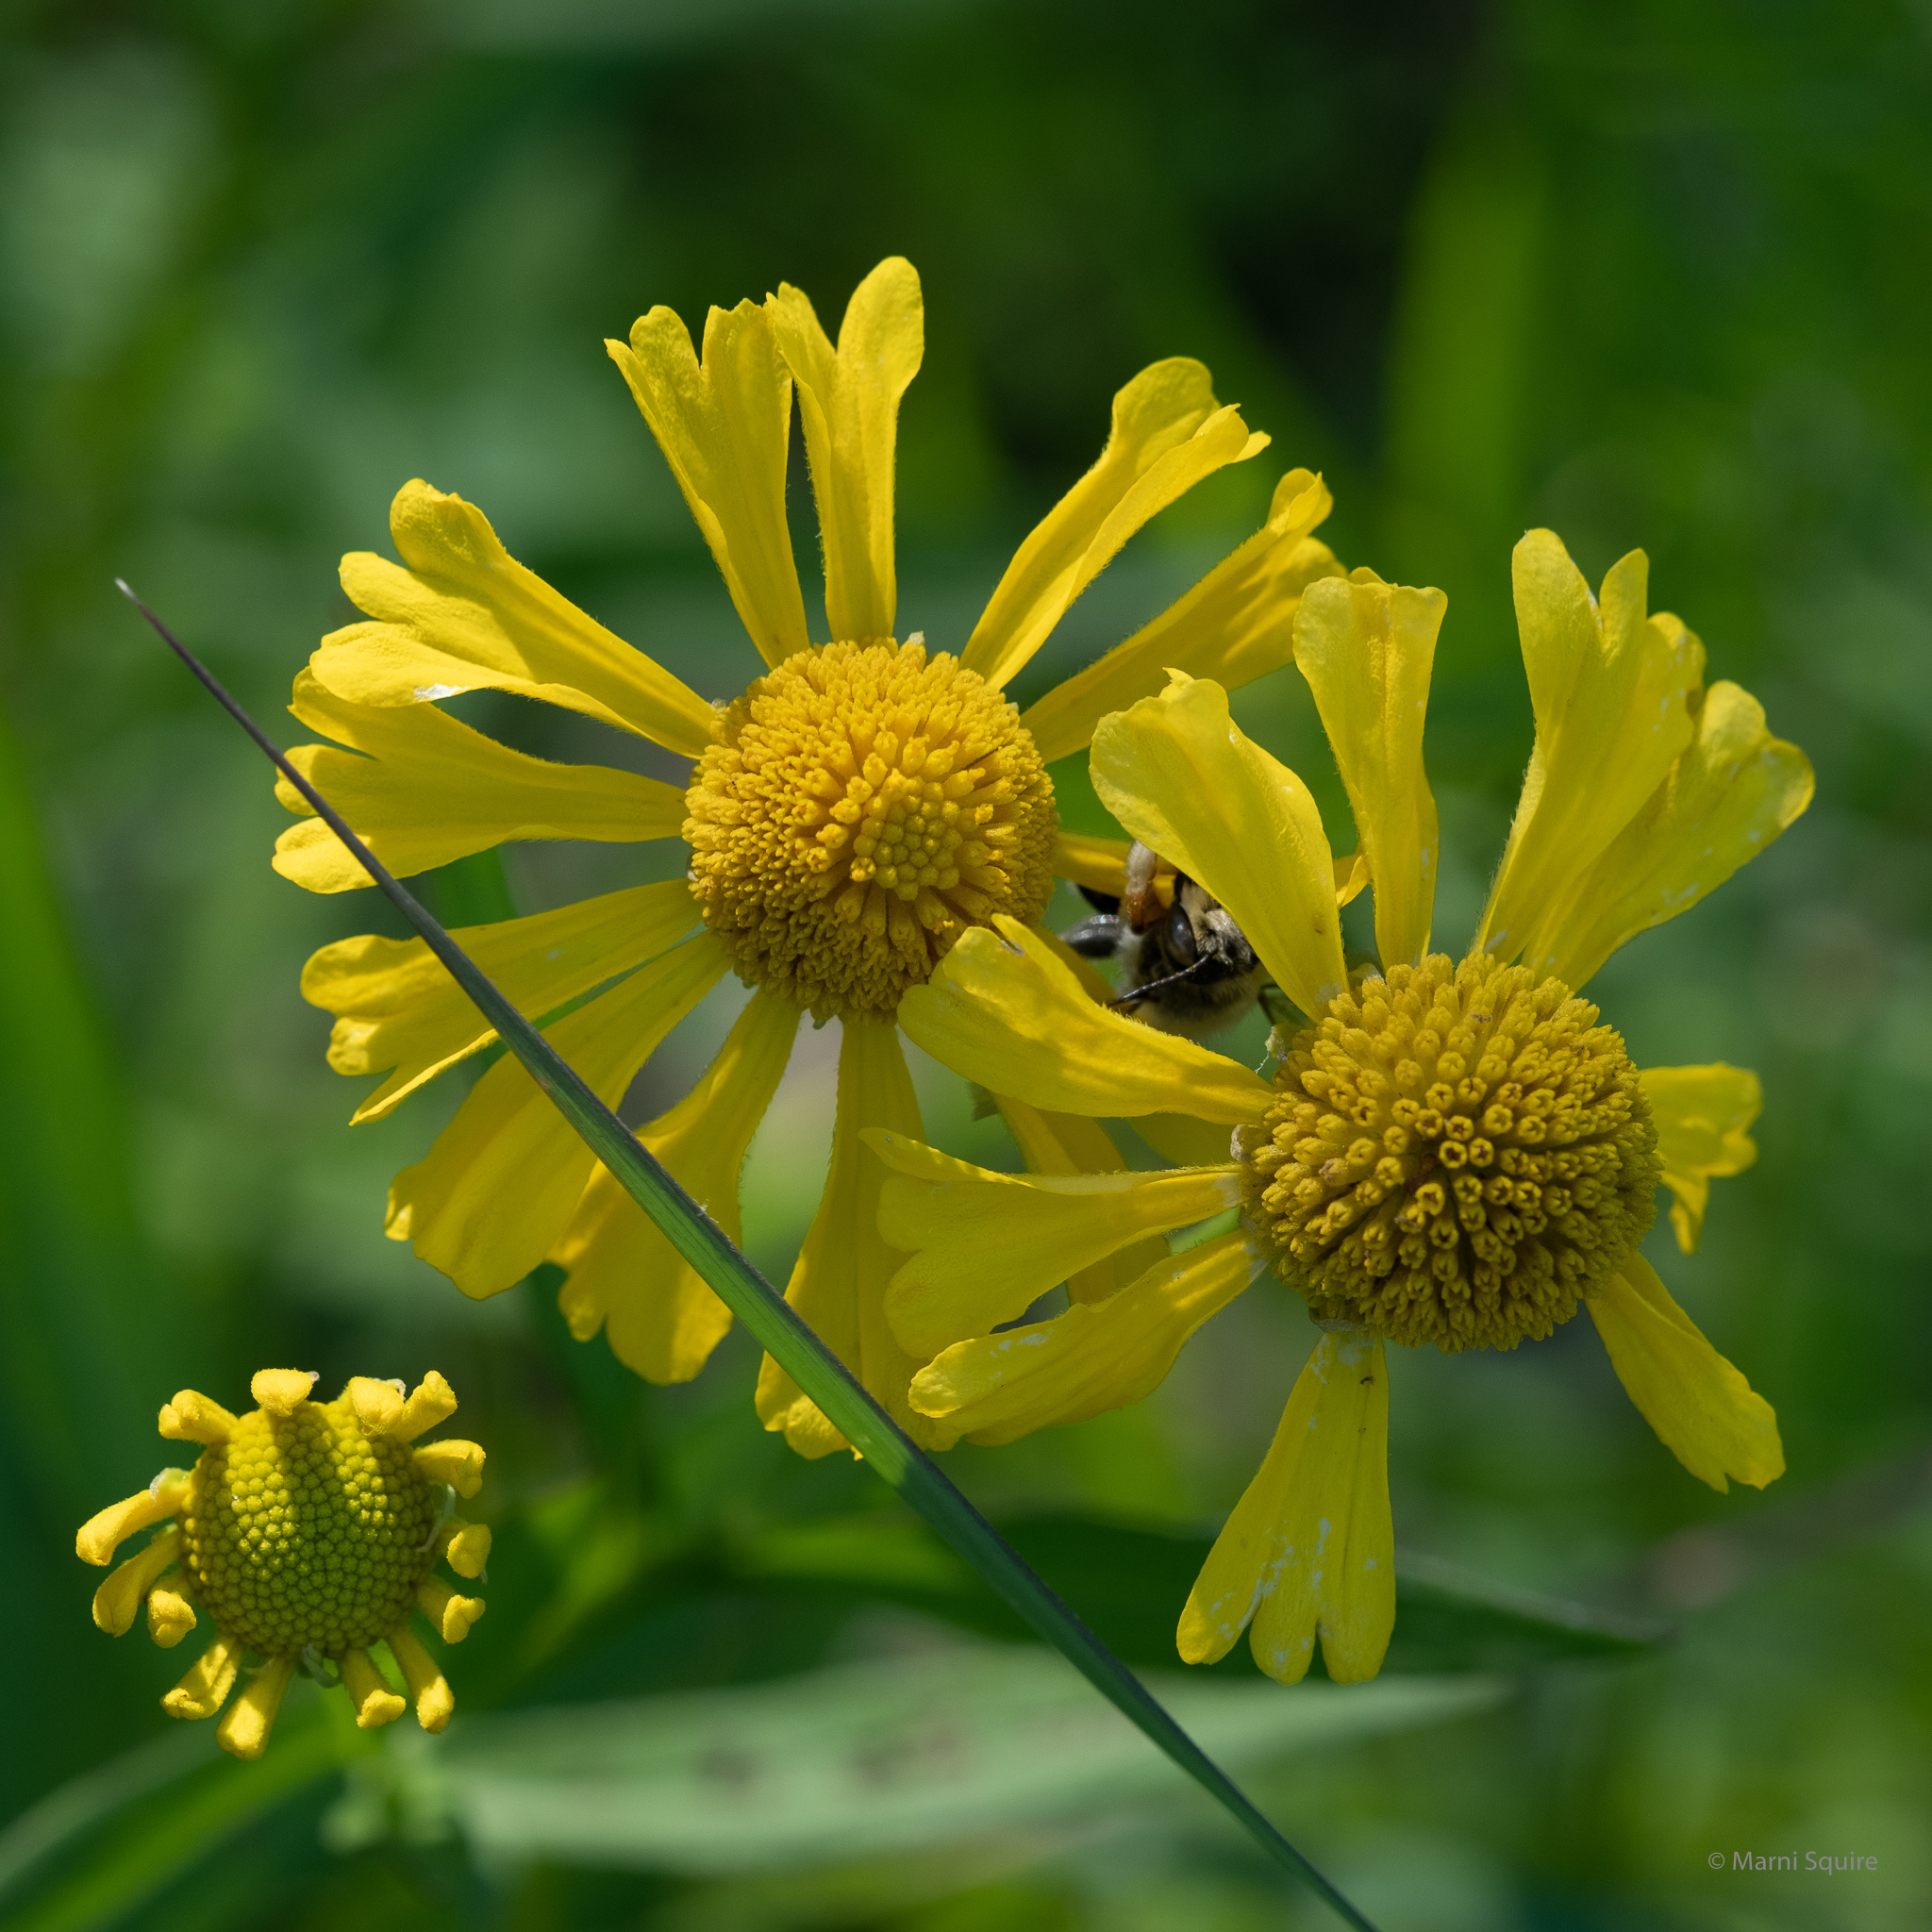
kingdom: Plantae
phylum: Tracheophyta
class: Magnoliopsida
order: Asterales
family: Asteraceae
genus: Helenium
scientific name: Helenium autumnale
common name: Sneezeweed
